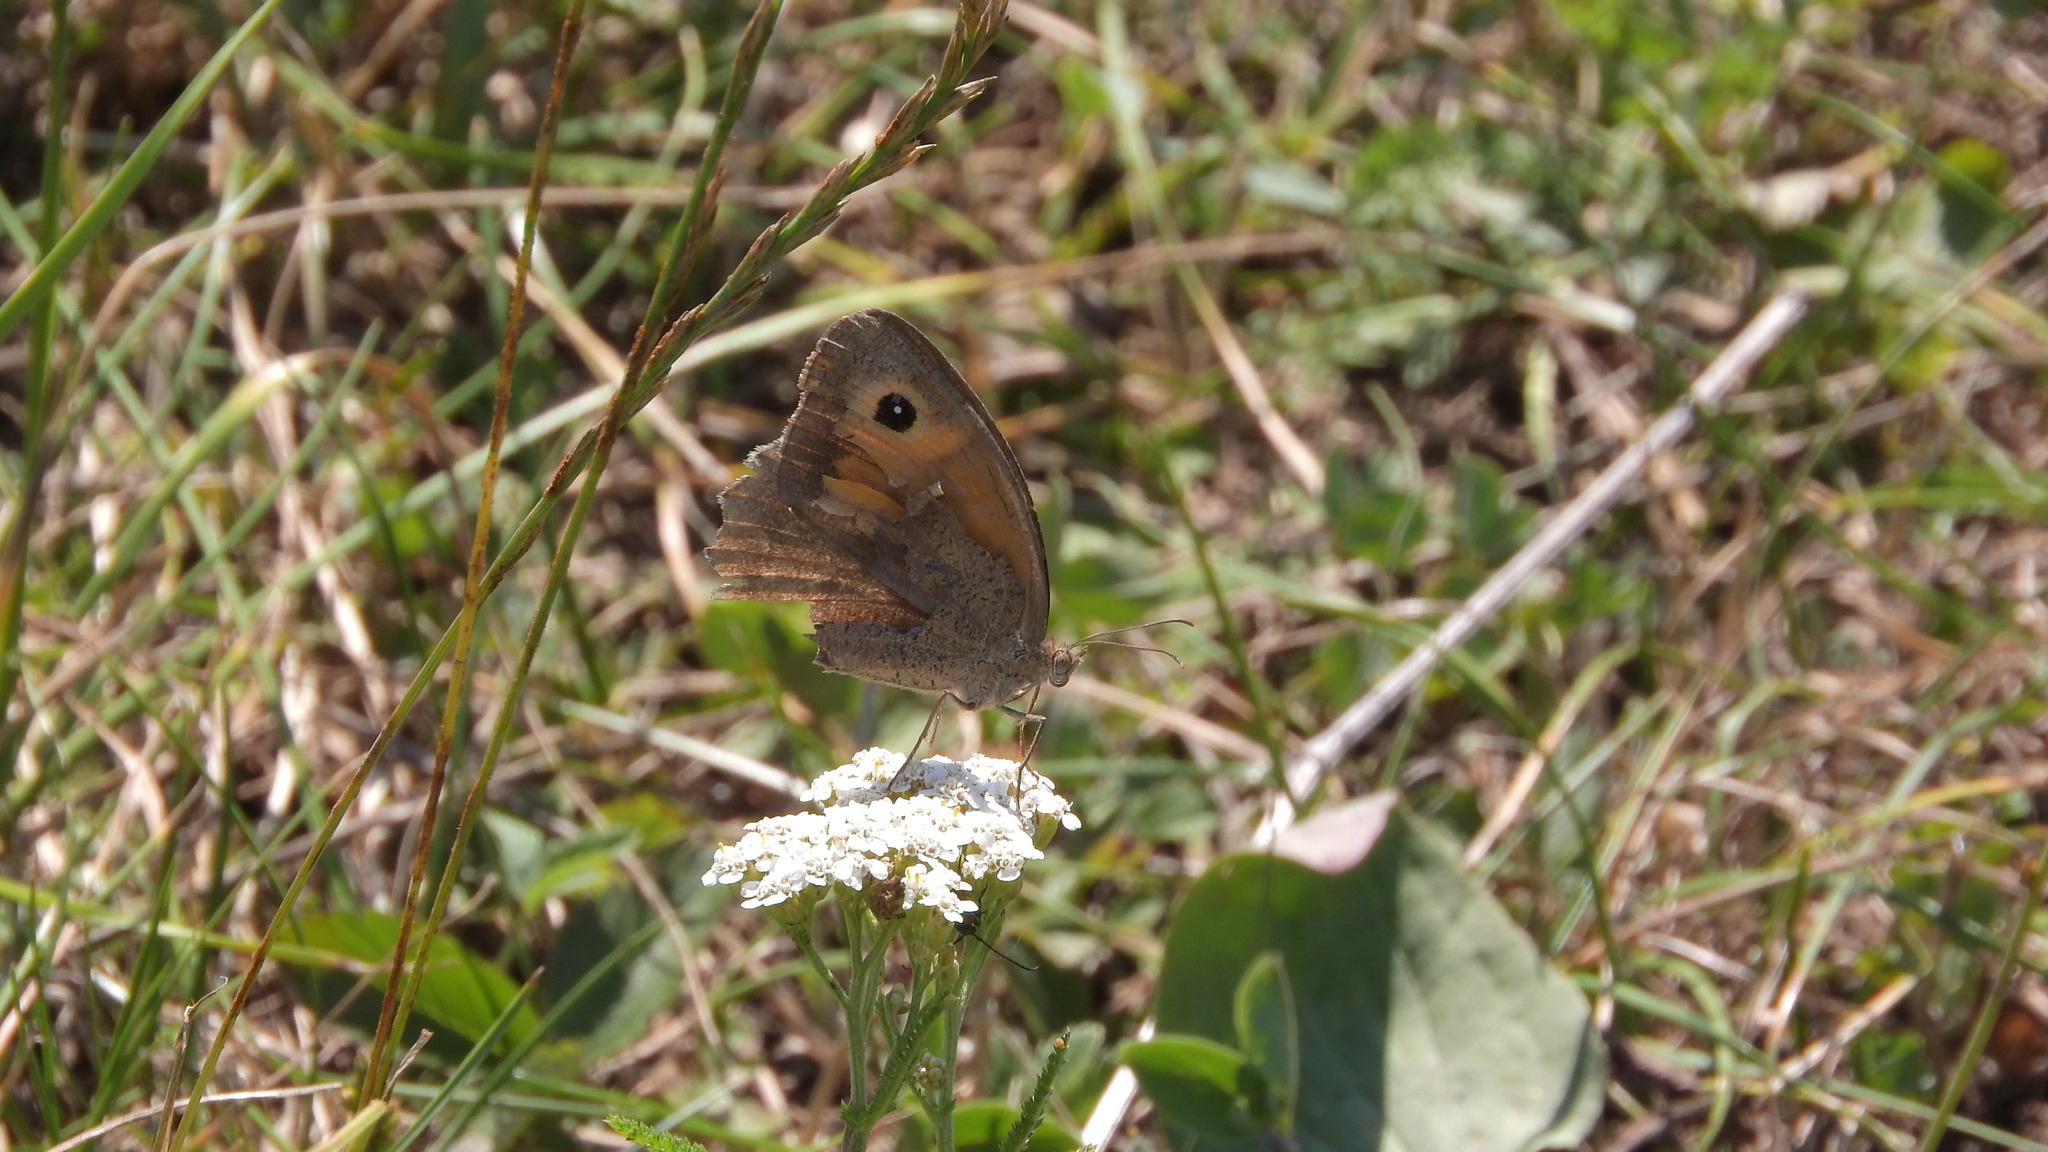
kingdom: Animalia
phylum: Arthropoda
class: Insecta
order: Lepidoptera
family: Nymphalidae
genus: Maniola
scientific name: Maniola jurtina
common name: Meadow brown
